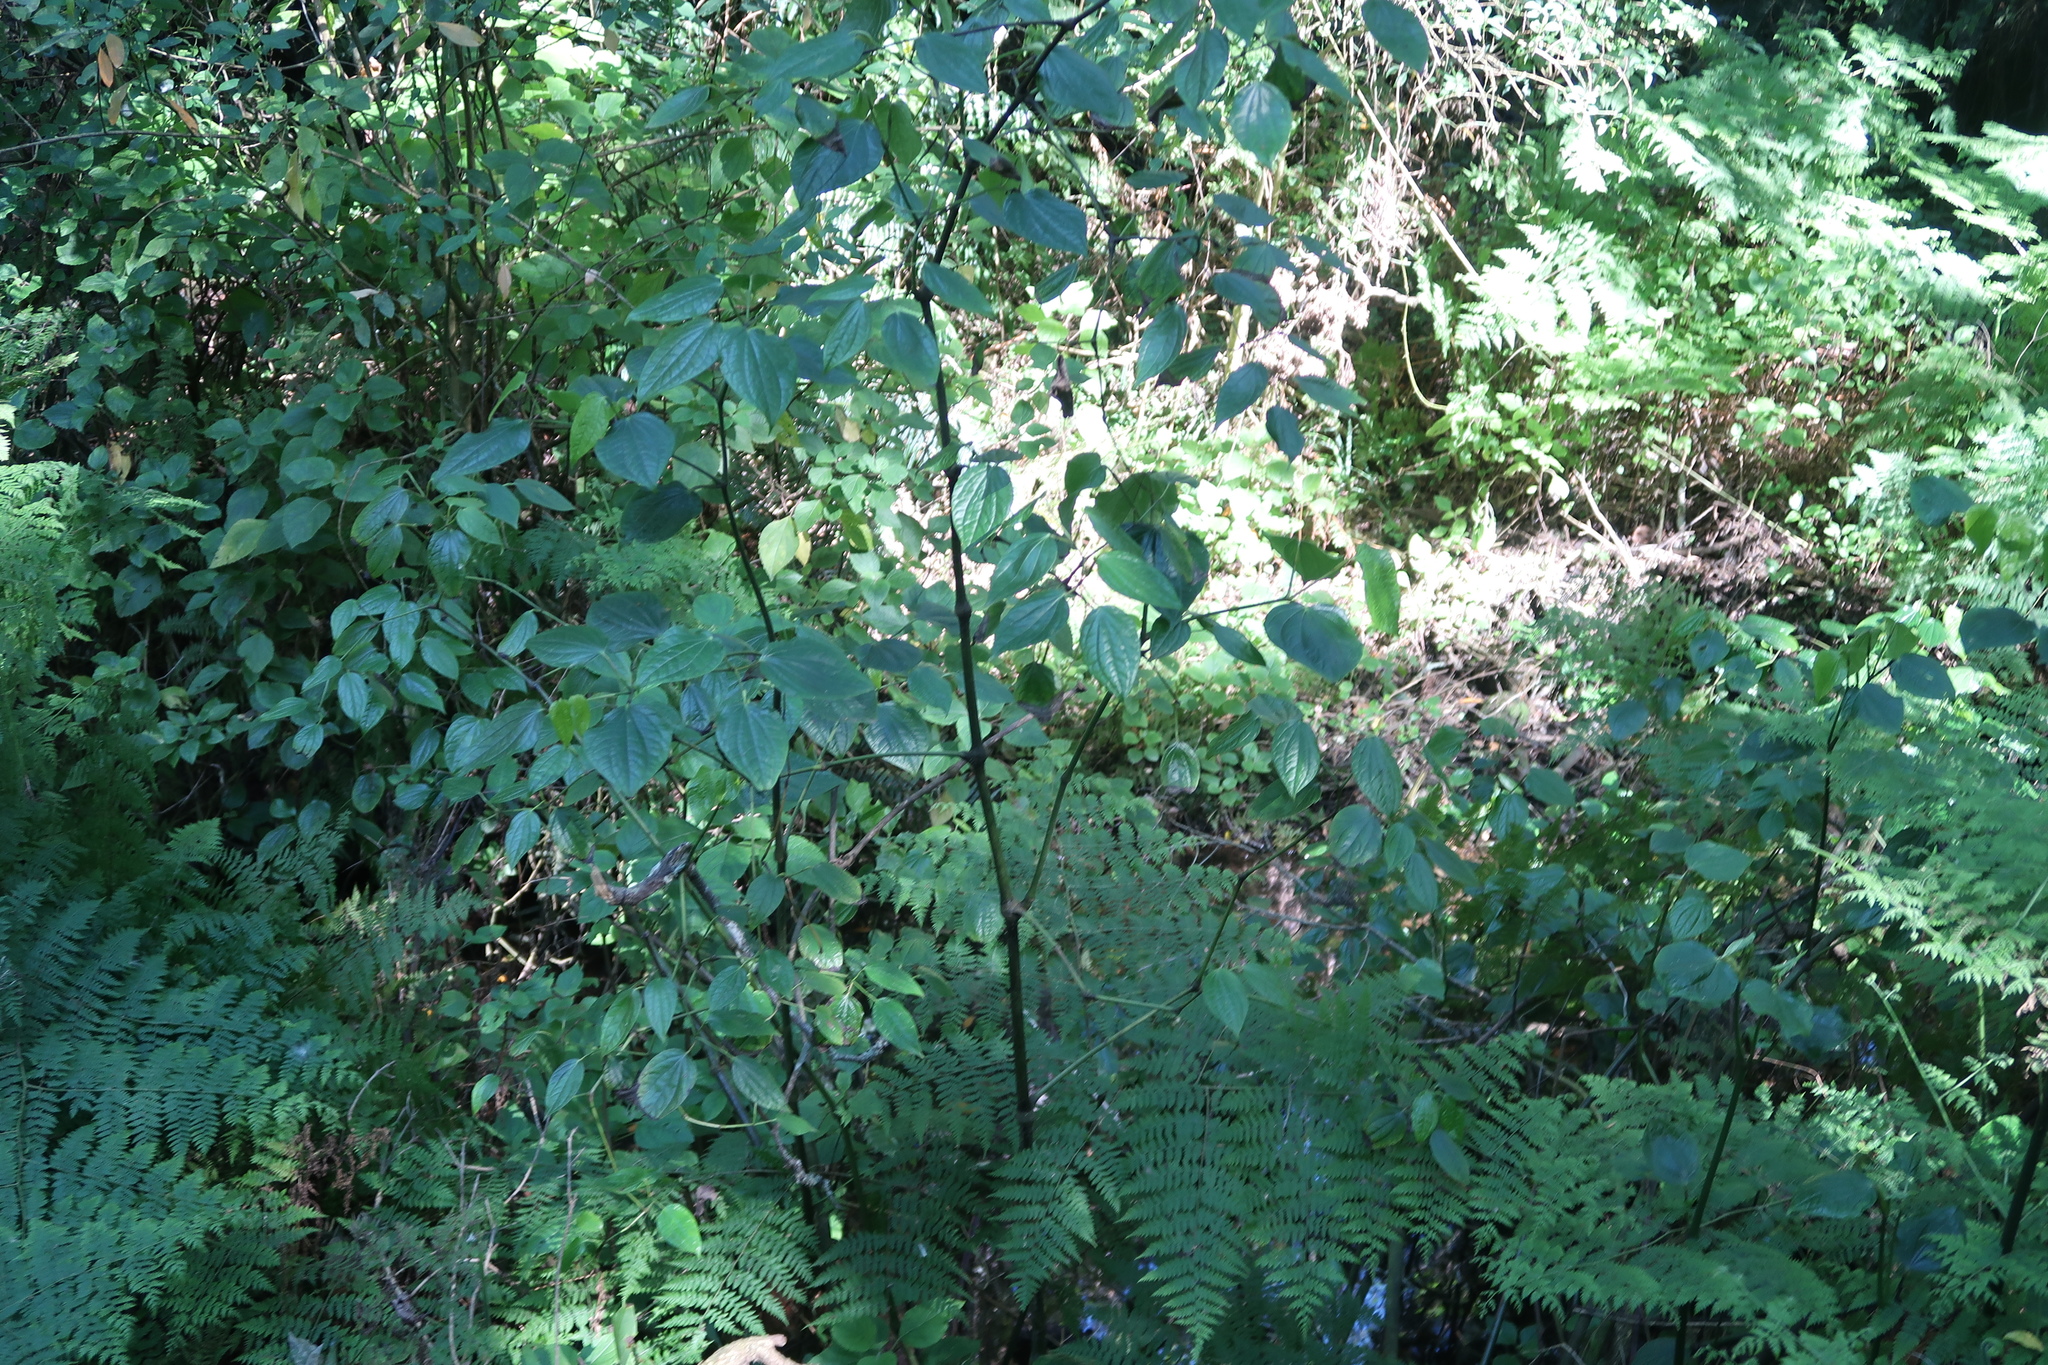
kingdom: Plantae
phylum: Tracheophyta
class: Magnoliopsida
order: Piperales
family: Piperaceae
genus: Piper
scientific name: Piper capense
